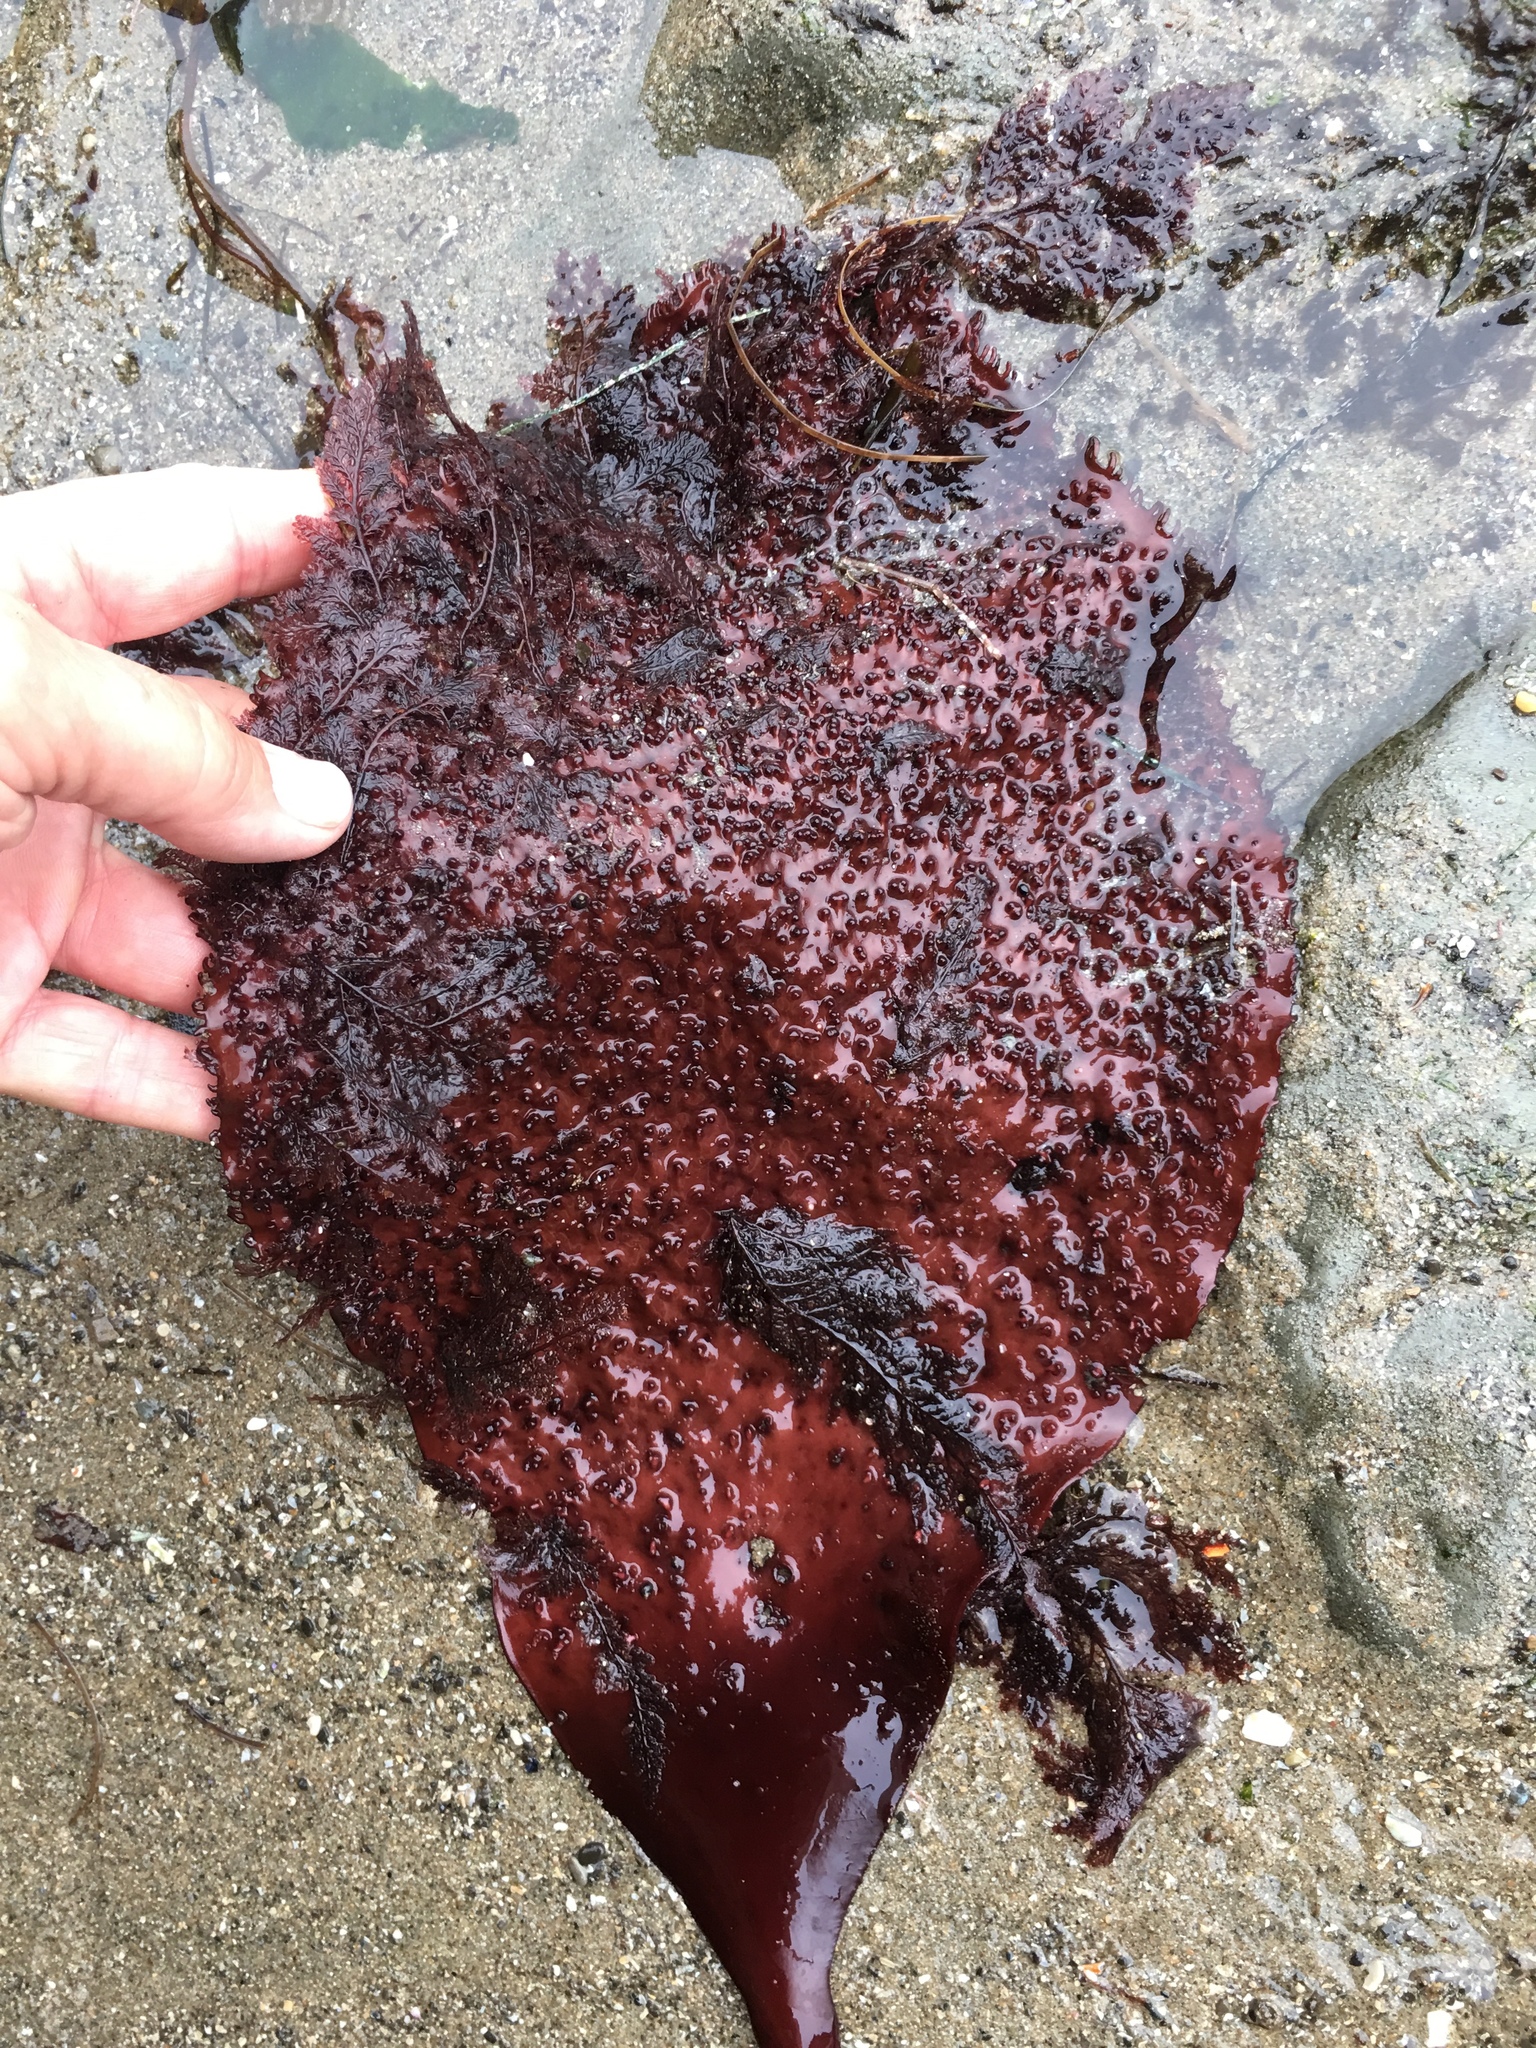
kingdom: Plantae
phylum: Rhodophyta
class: Florideophyceae
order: Gigartinales
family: Gigartinaceae
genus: Chondracanthus
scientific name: Chondracanthus exasperatus
